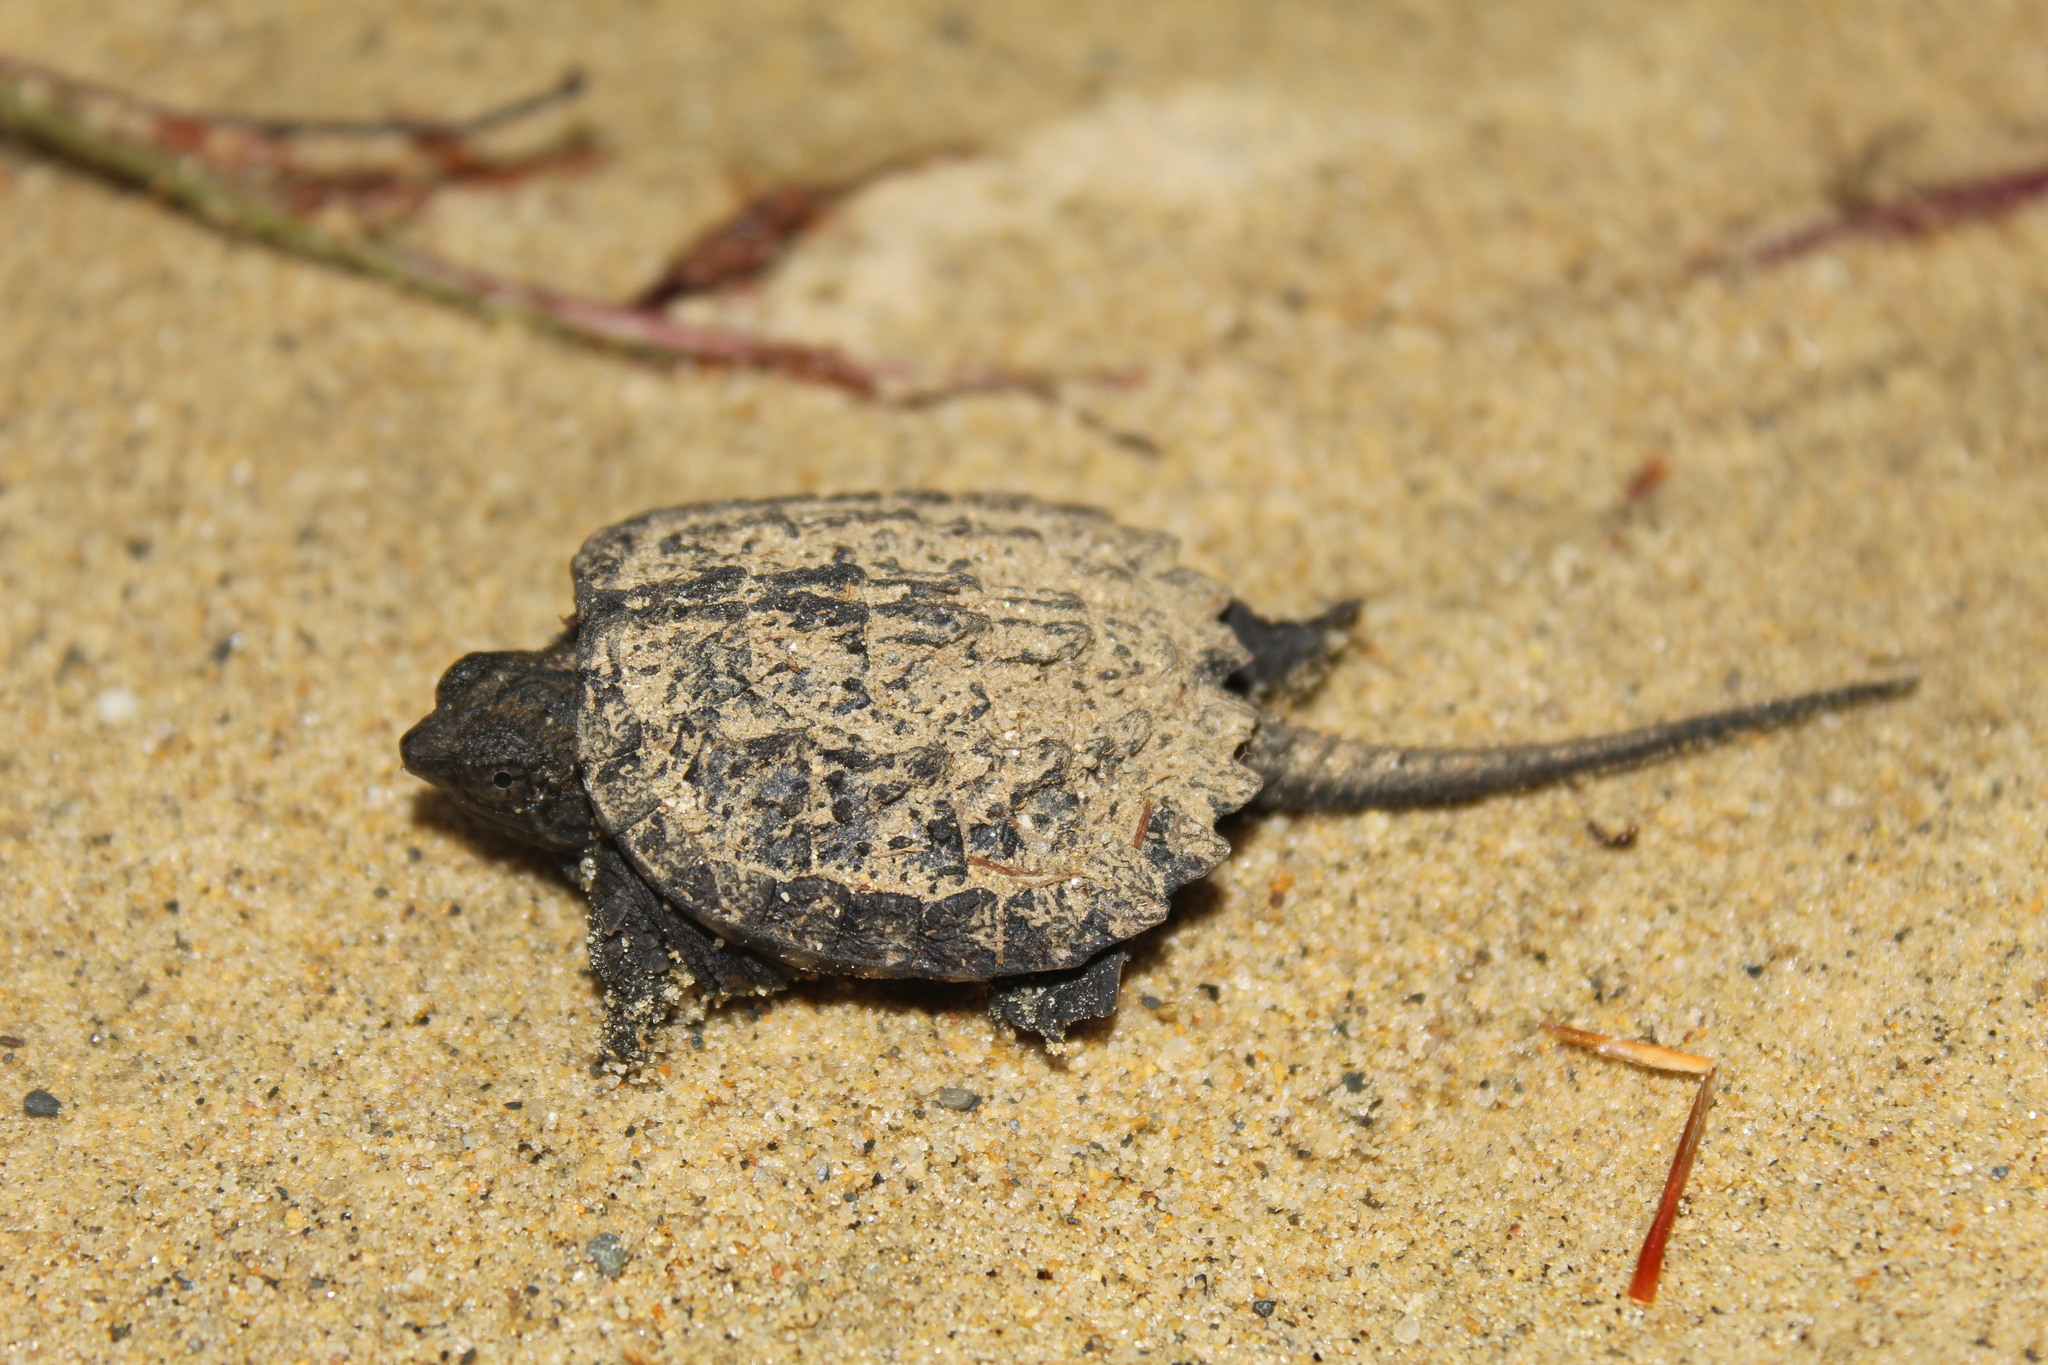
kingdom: Animalia
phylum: Chordata
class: Testudines
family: Chelydridae
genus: Chelydra
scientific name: Chelydra serpentina
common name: Common snapping turtle
